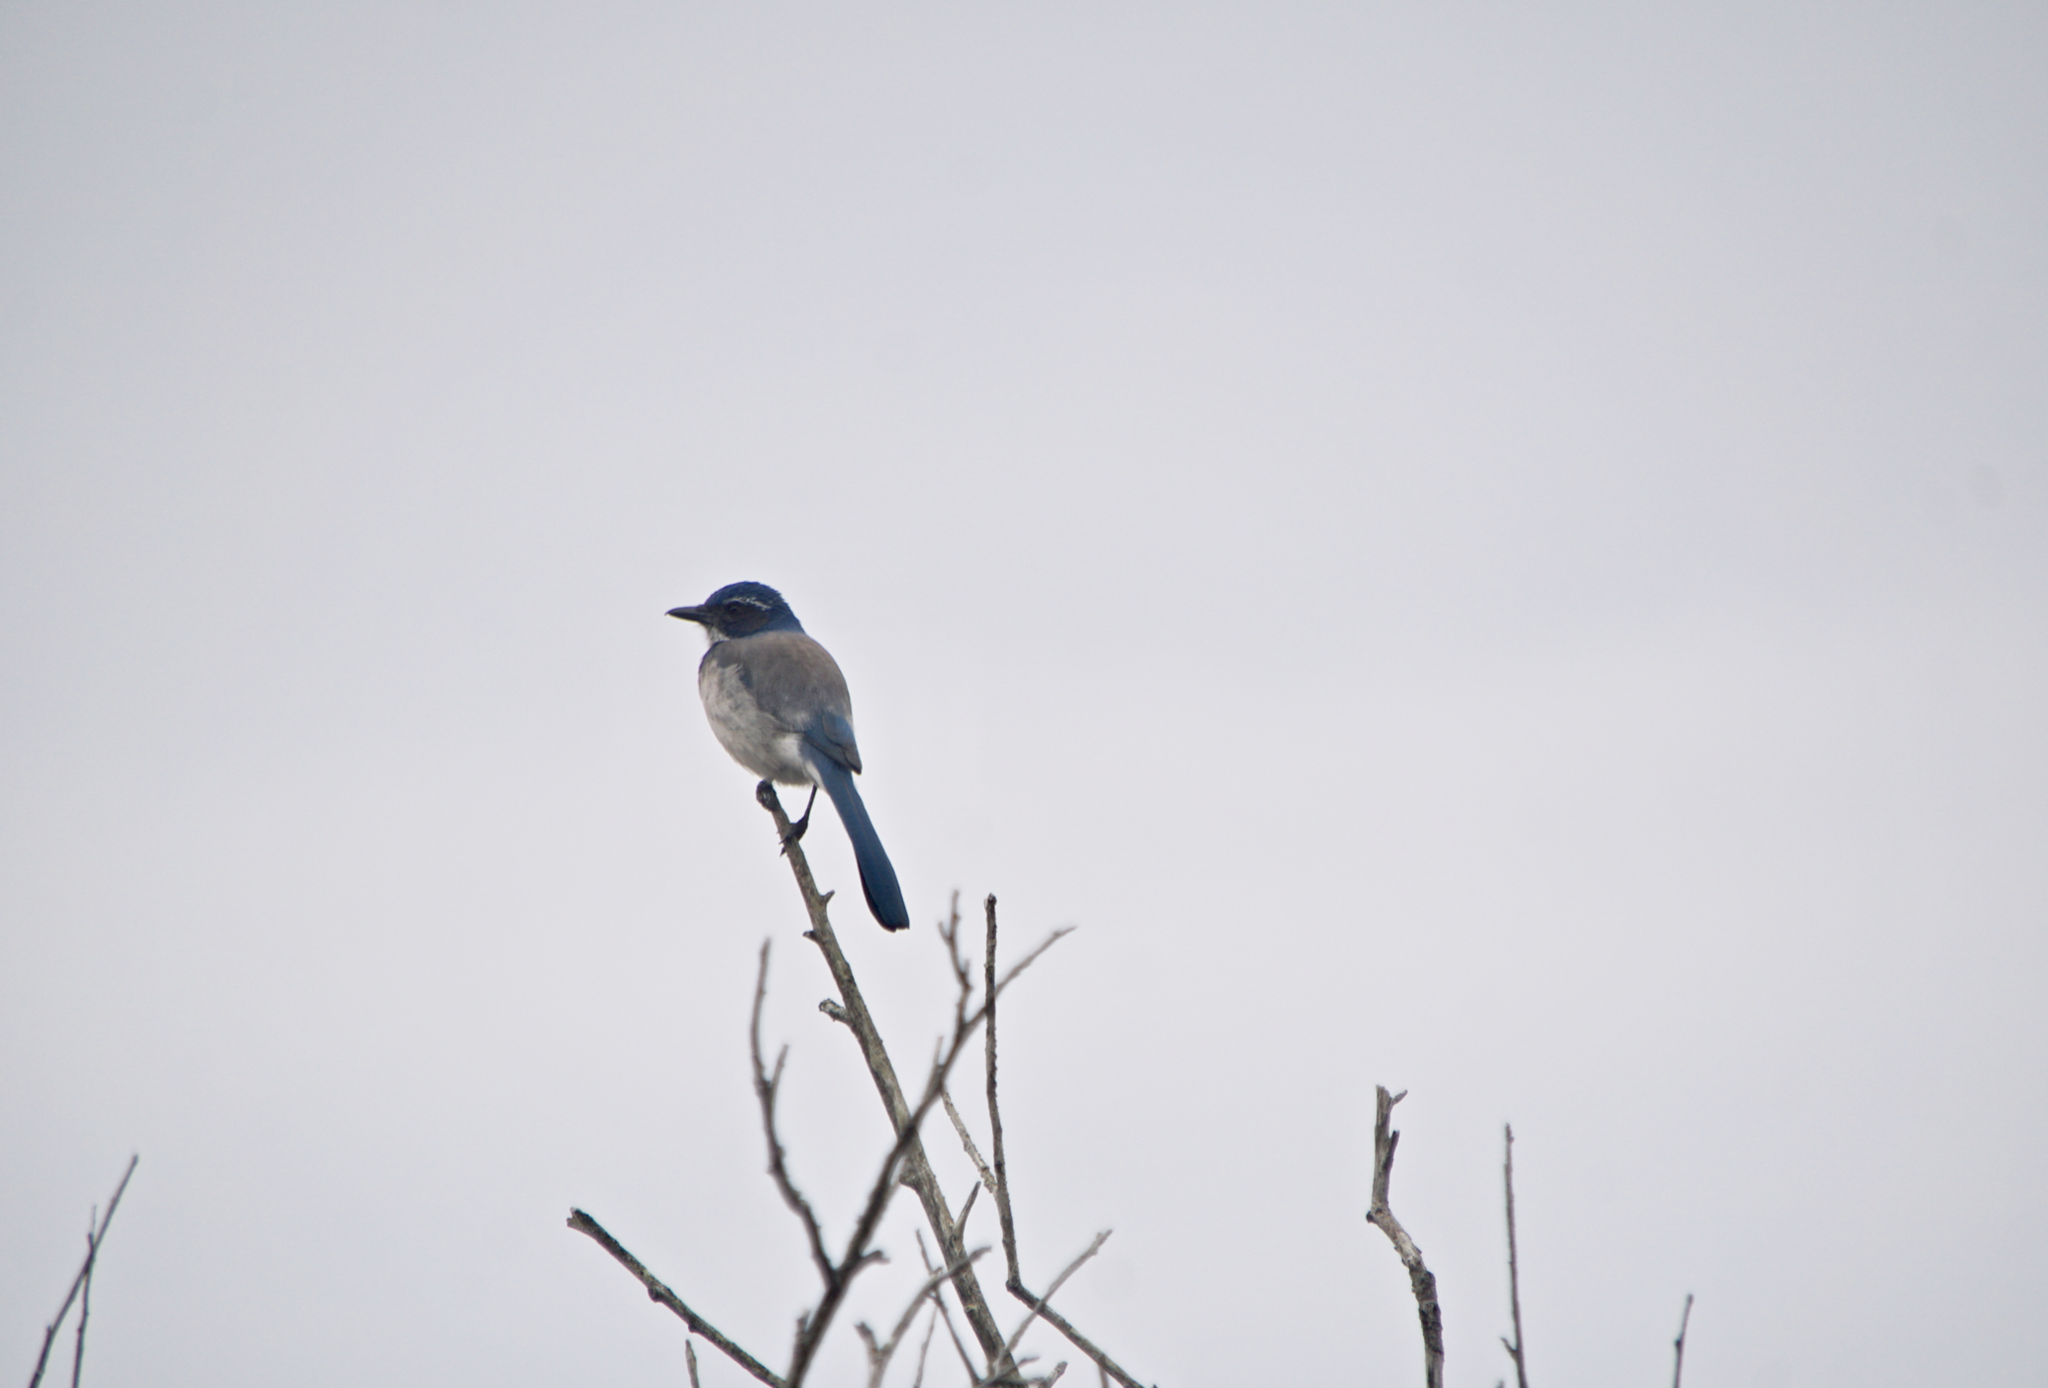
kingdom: Animalia
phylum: Chordata
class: Aves
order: Passeriformes
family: Corvidae
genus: Aphelocoma
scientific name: Aphelocoma californica
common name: California scrub-jay
